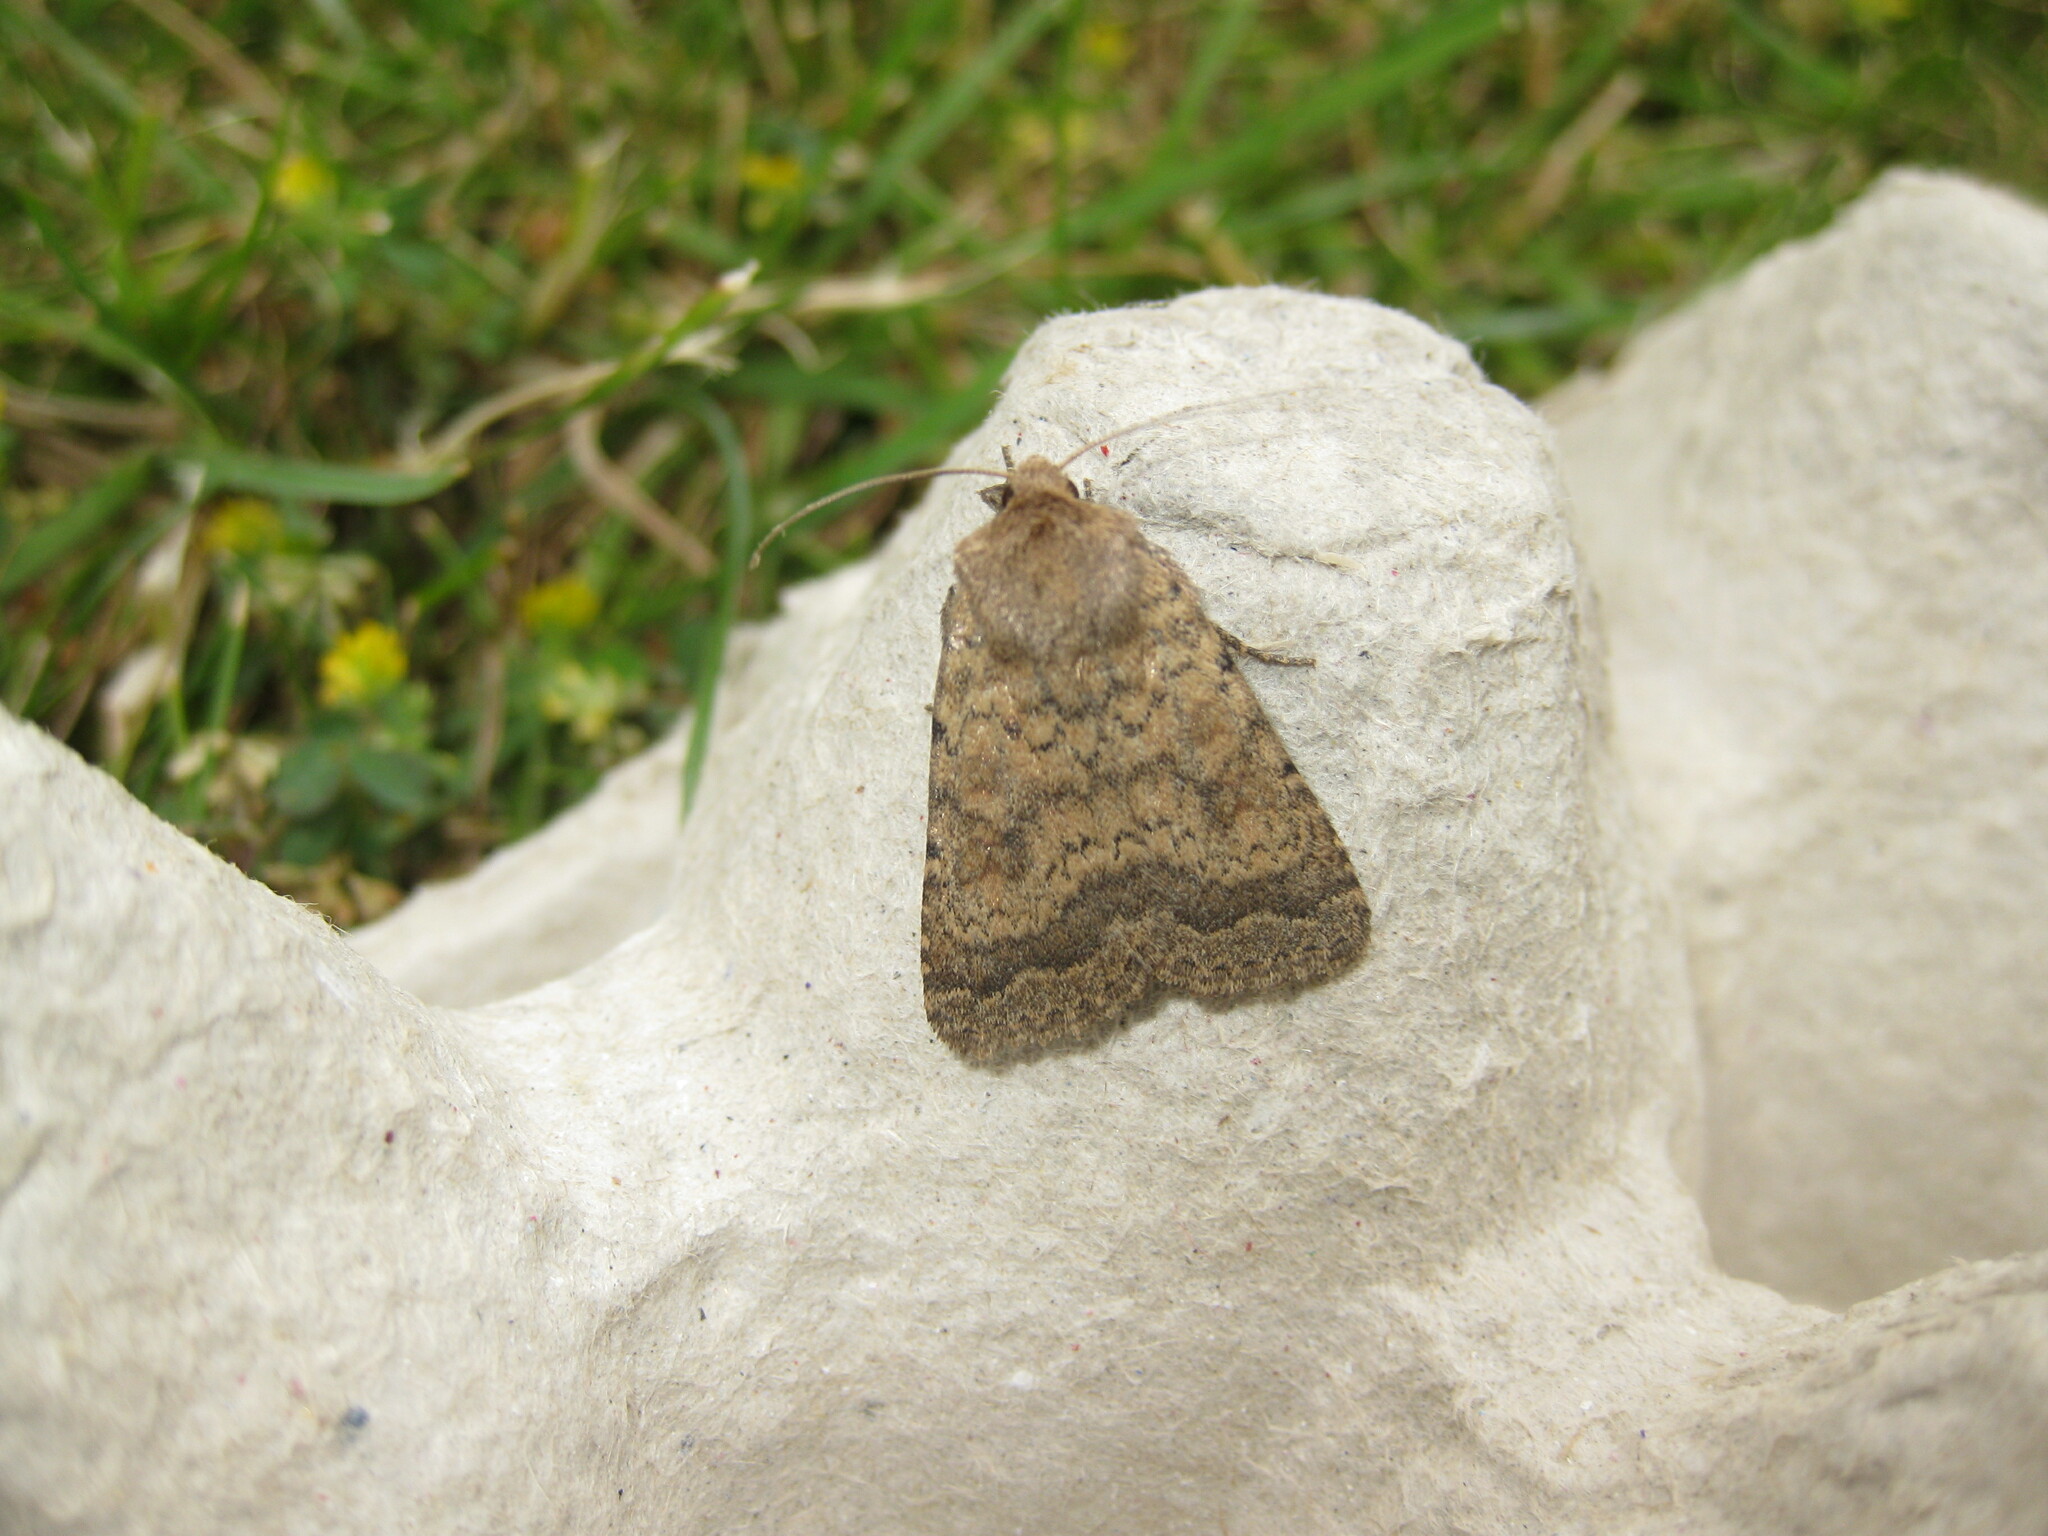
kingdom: Animalia
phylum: Arthropoda
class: Insecta
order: Lepidoptera
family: Noctuidae
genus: Caradrina
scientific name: Caradrina morpheus
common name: Mottled rustic
